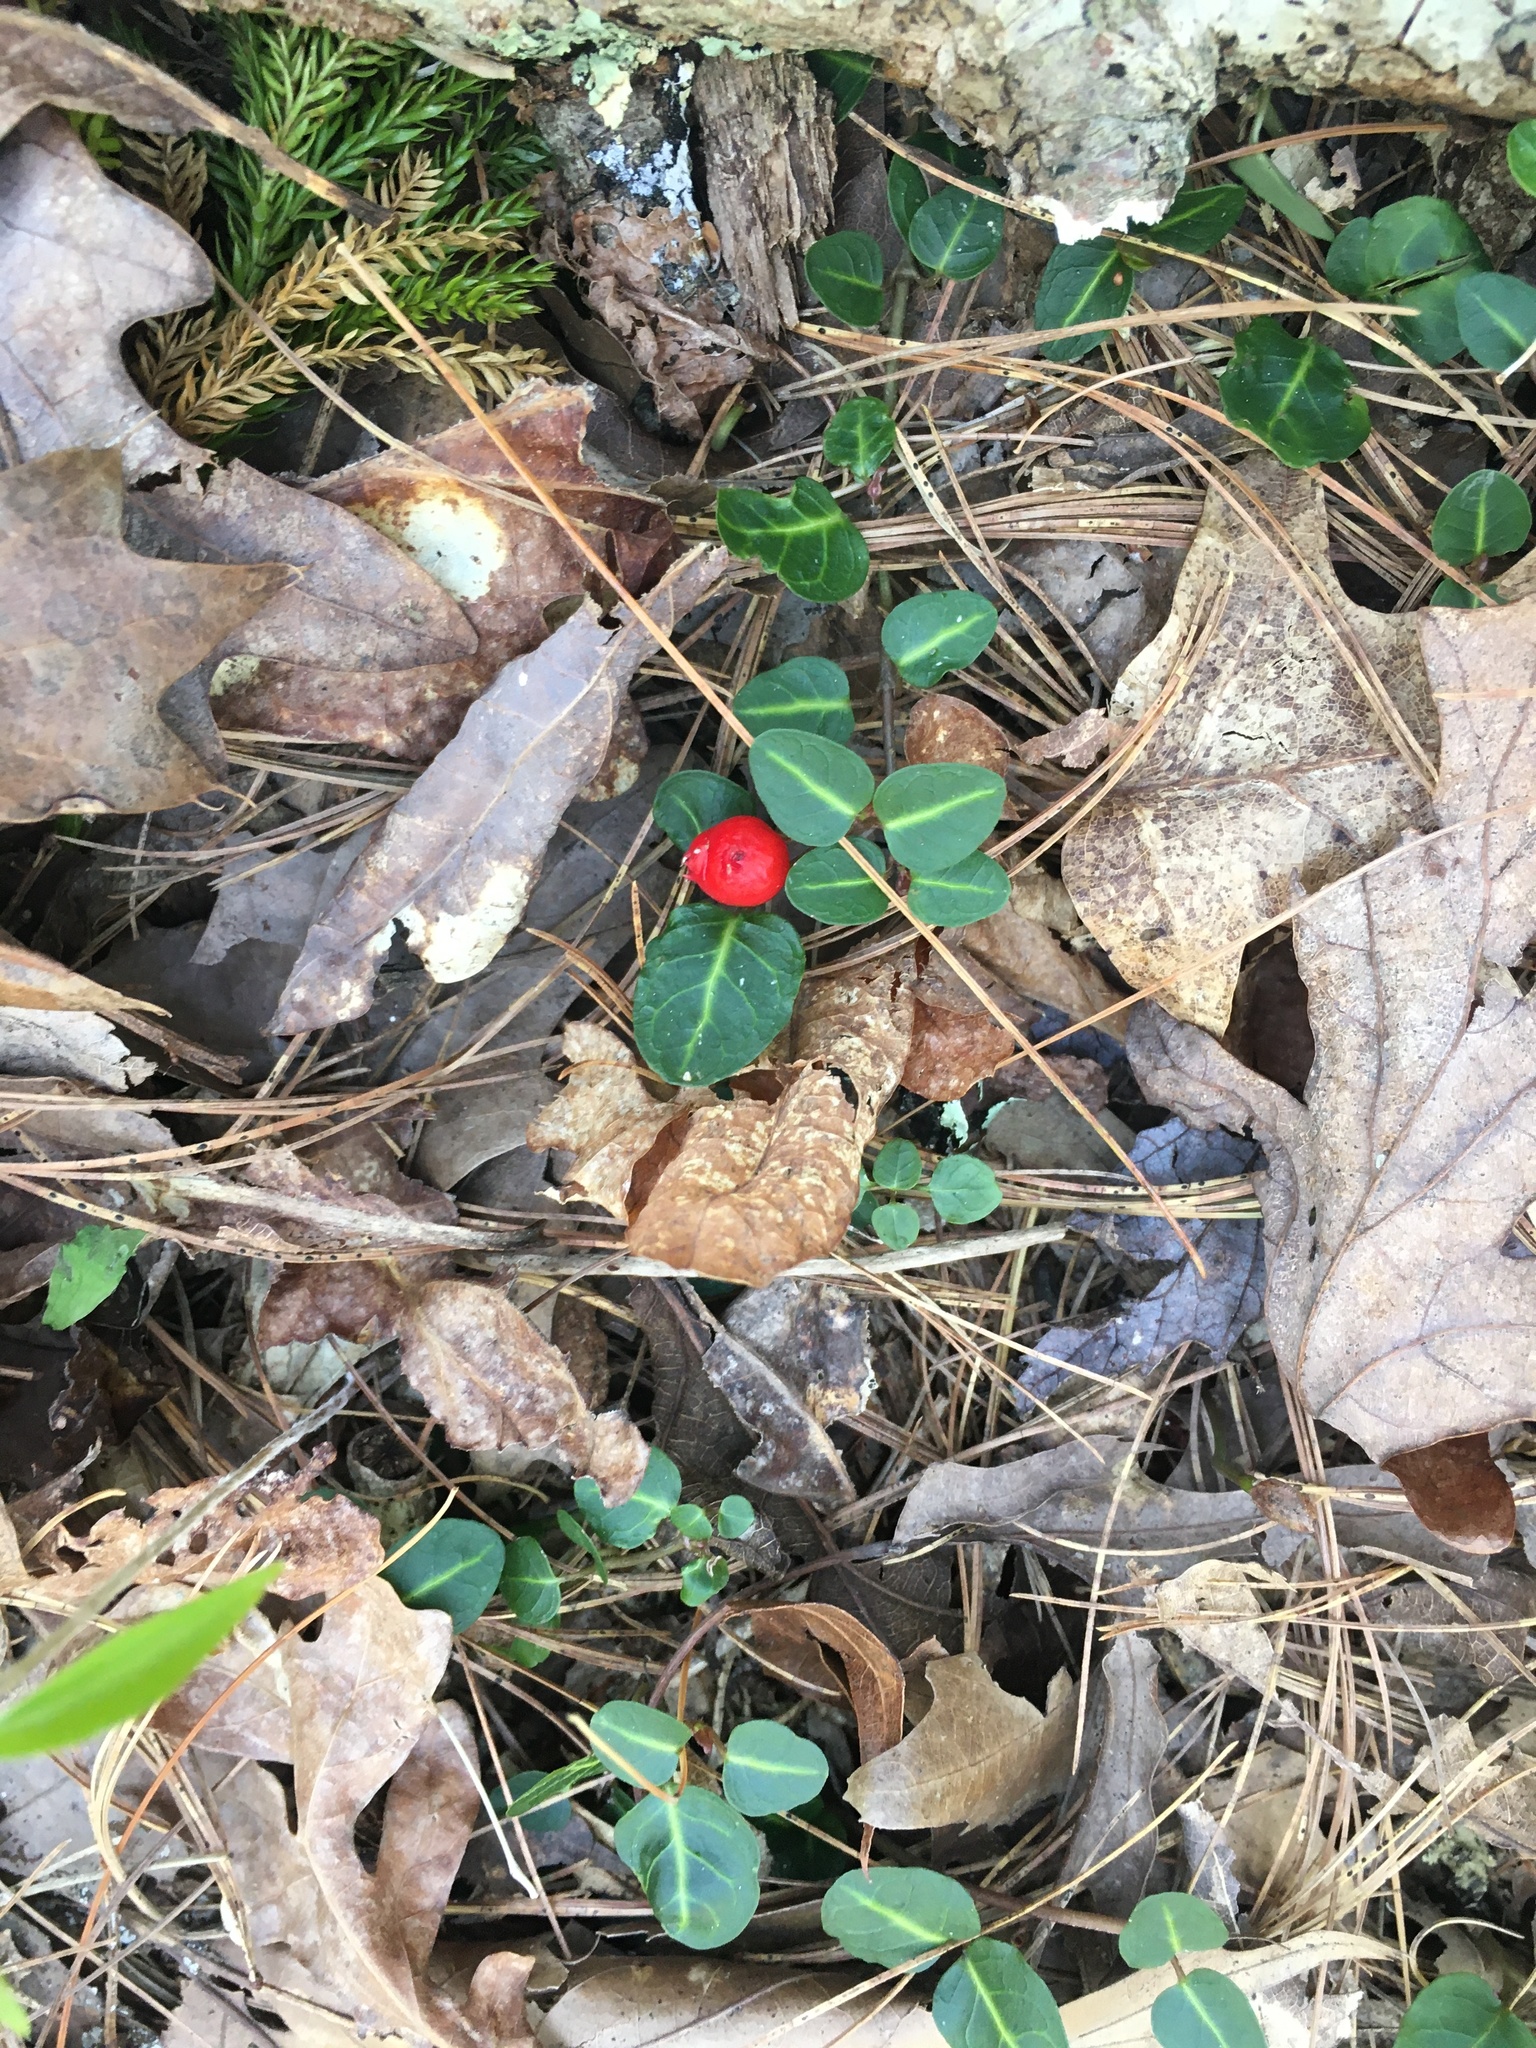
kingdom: Plantae
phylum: Tracheophyta
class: Magnoliopsida
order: Gentianales
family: Rubiaceae
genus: Mitchella
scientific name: Mitchella repens
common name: Partridge-berry
